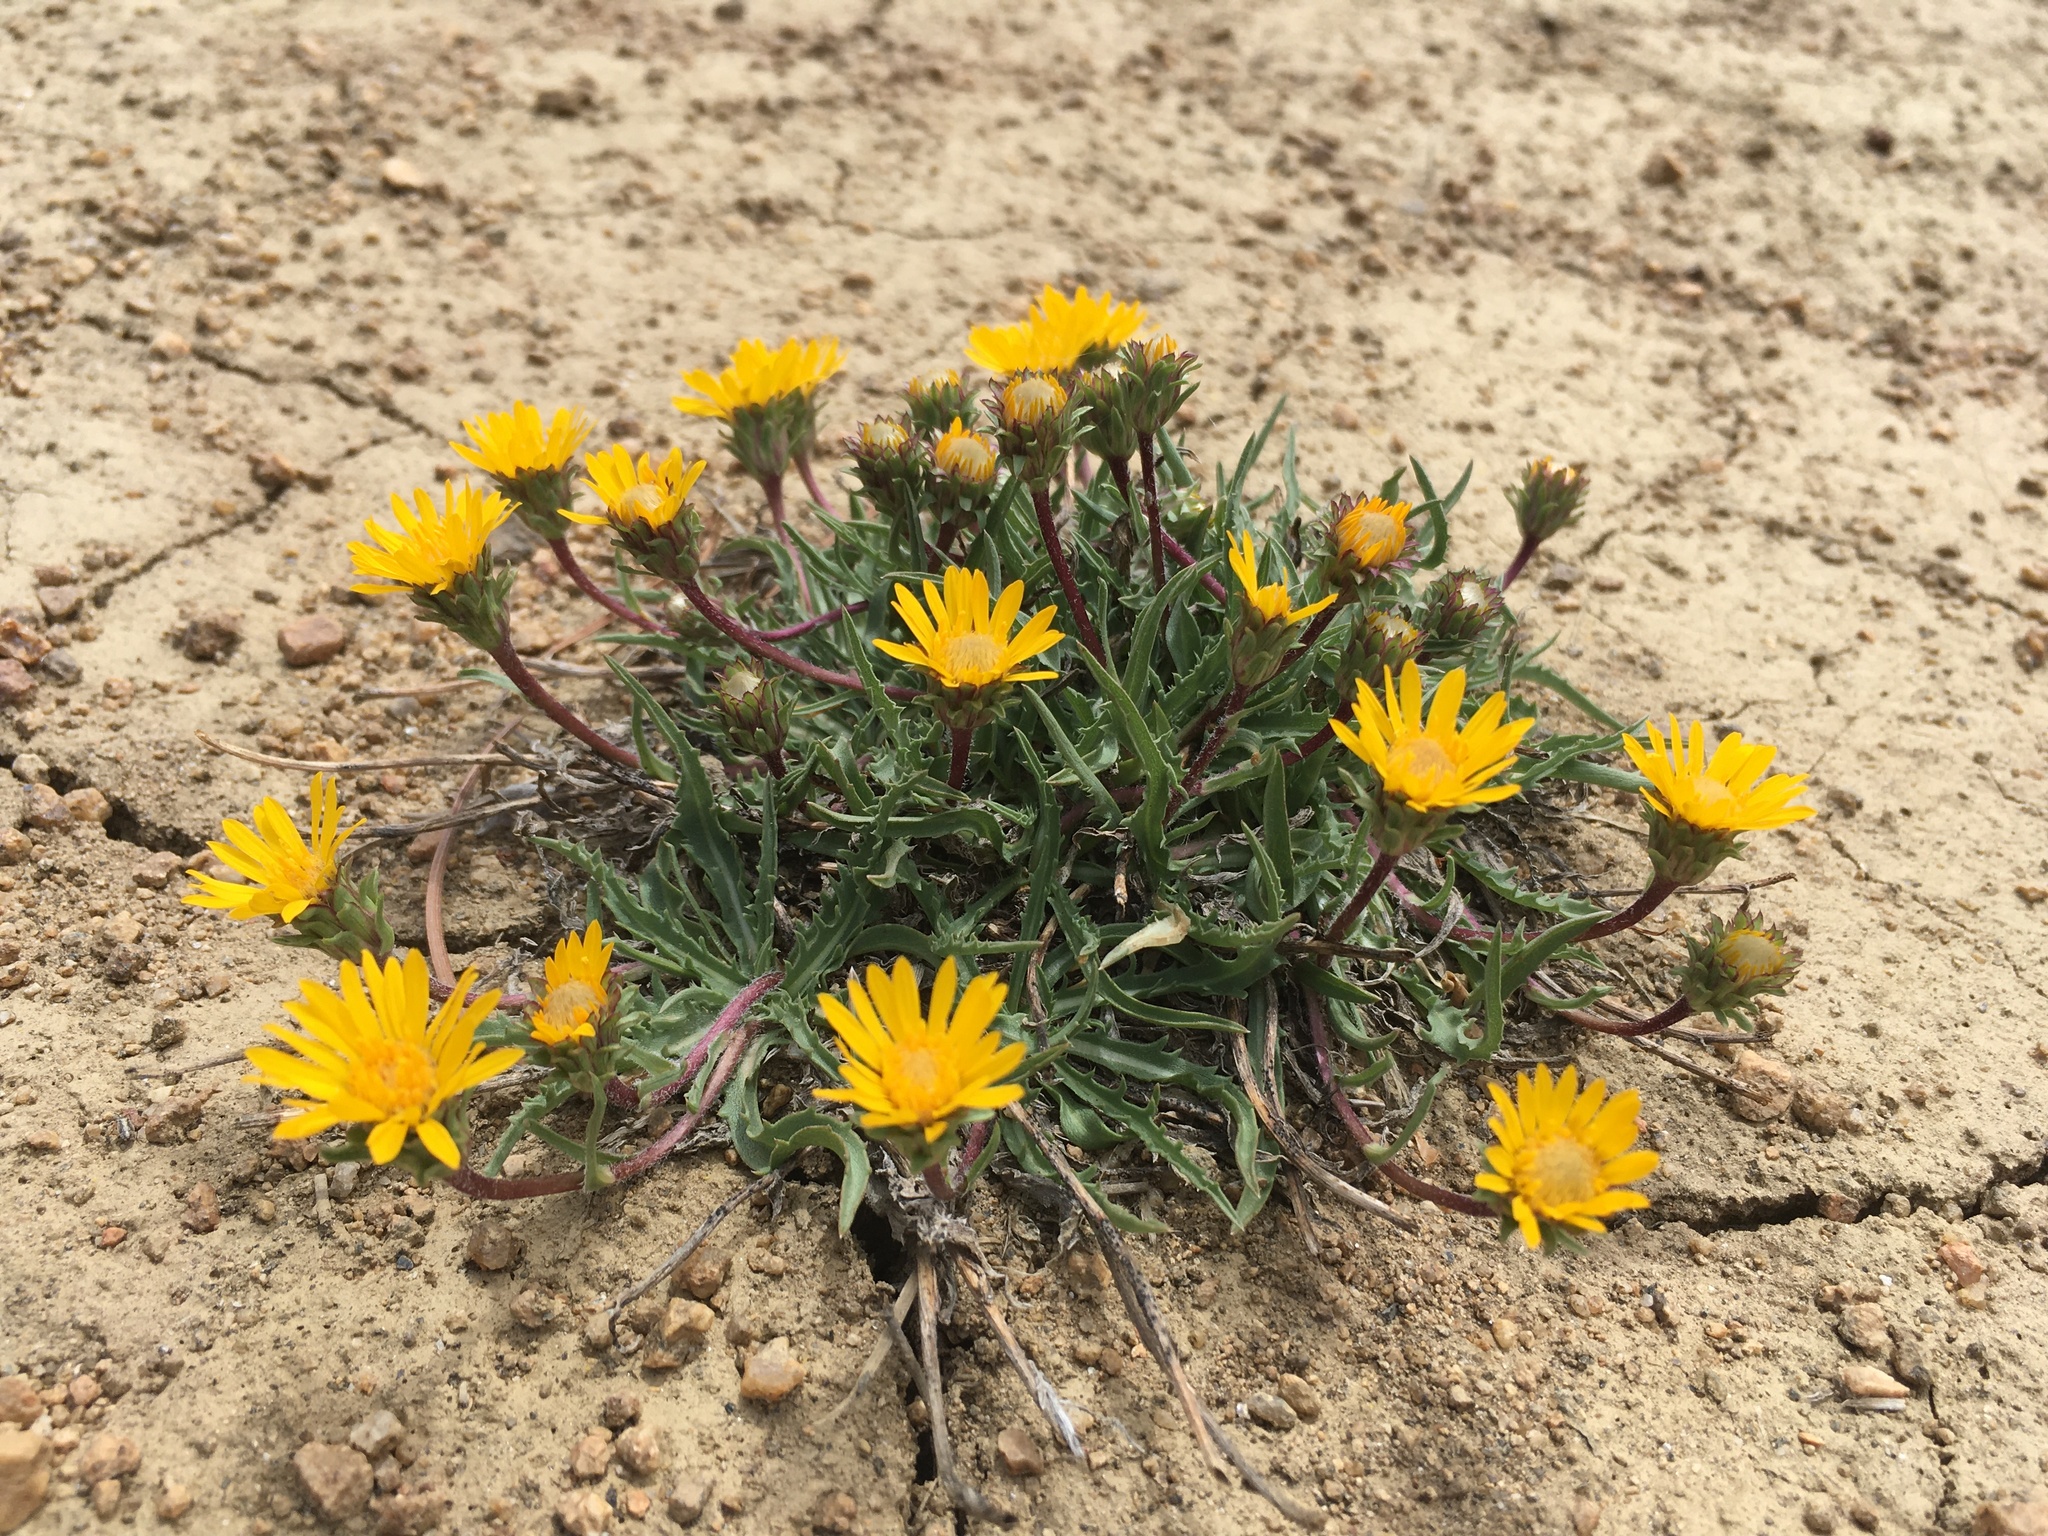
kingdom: Plantae
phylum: Tracheophyta
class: Magnoliopsida
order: Asterales
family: Asteraceae
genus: Pyrrocoma
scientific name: Pyrrocoma apargioides
